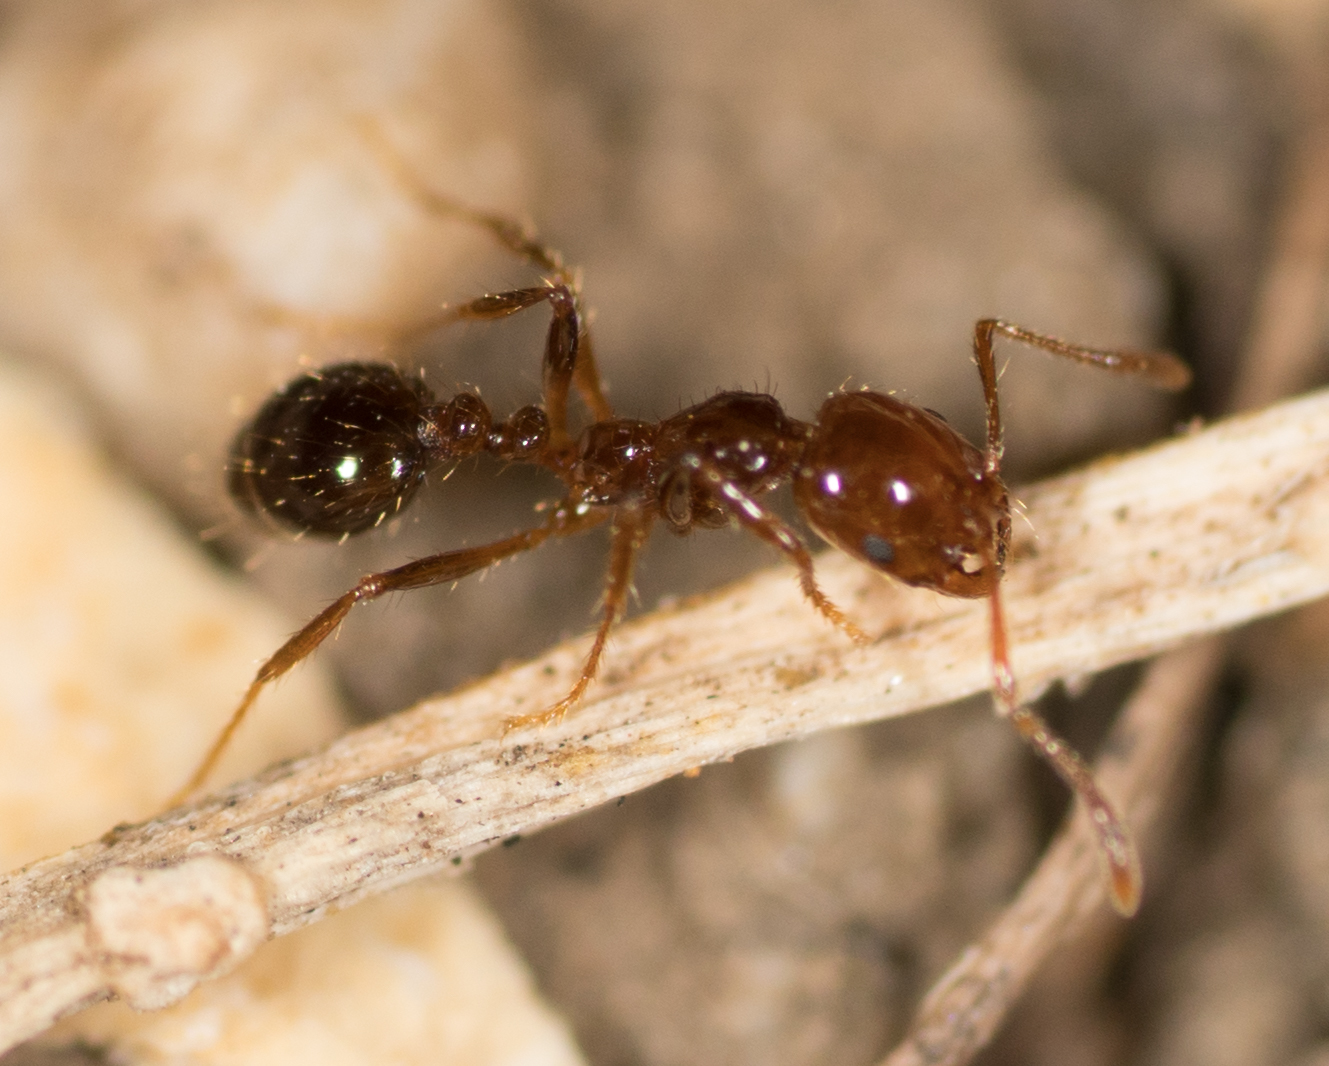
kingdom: Animalia
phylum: Arthropoda
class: Insecta
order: Hymenoptera
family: Formicidae
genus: Solenopsis
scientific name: Solenopsis invicta
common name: Red imported fire ant
